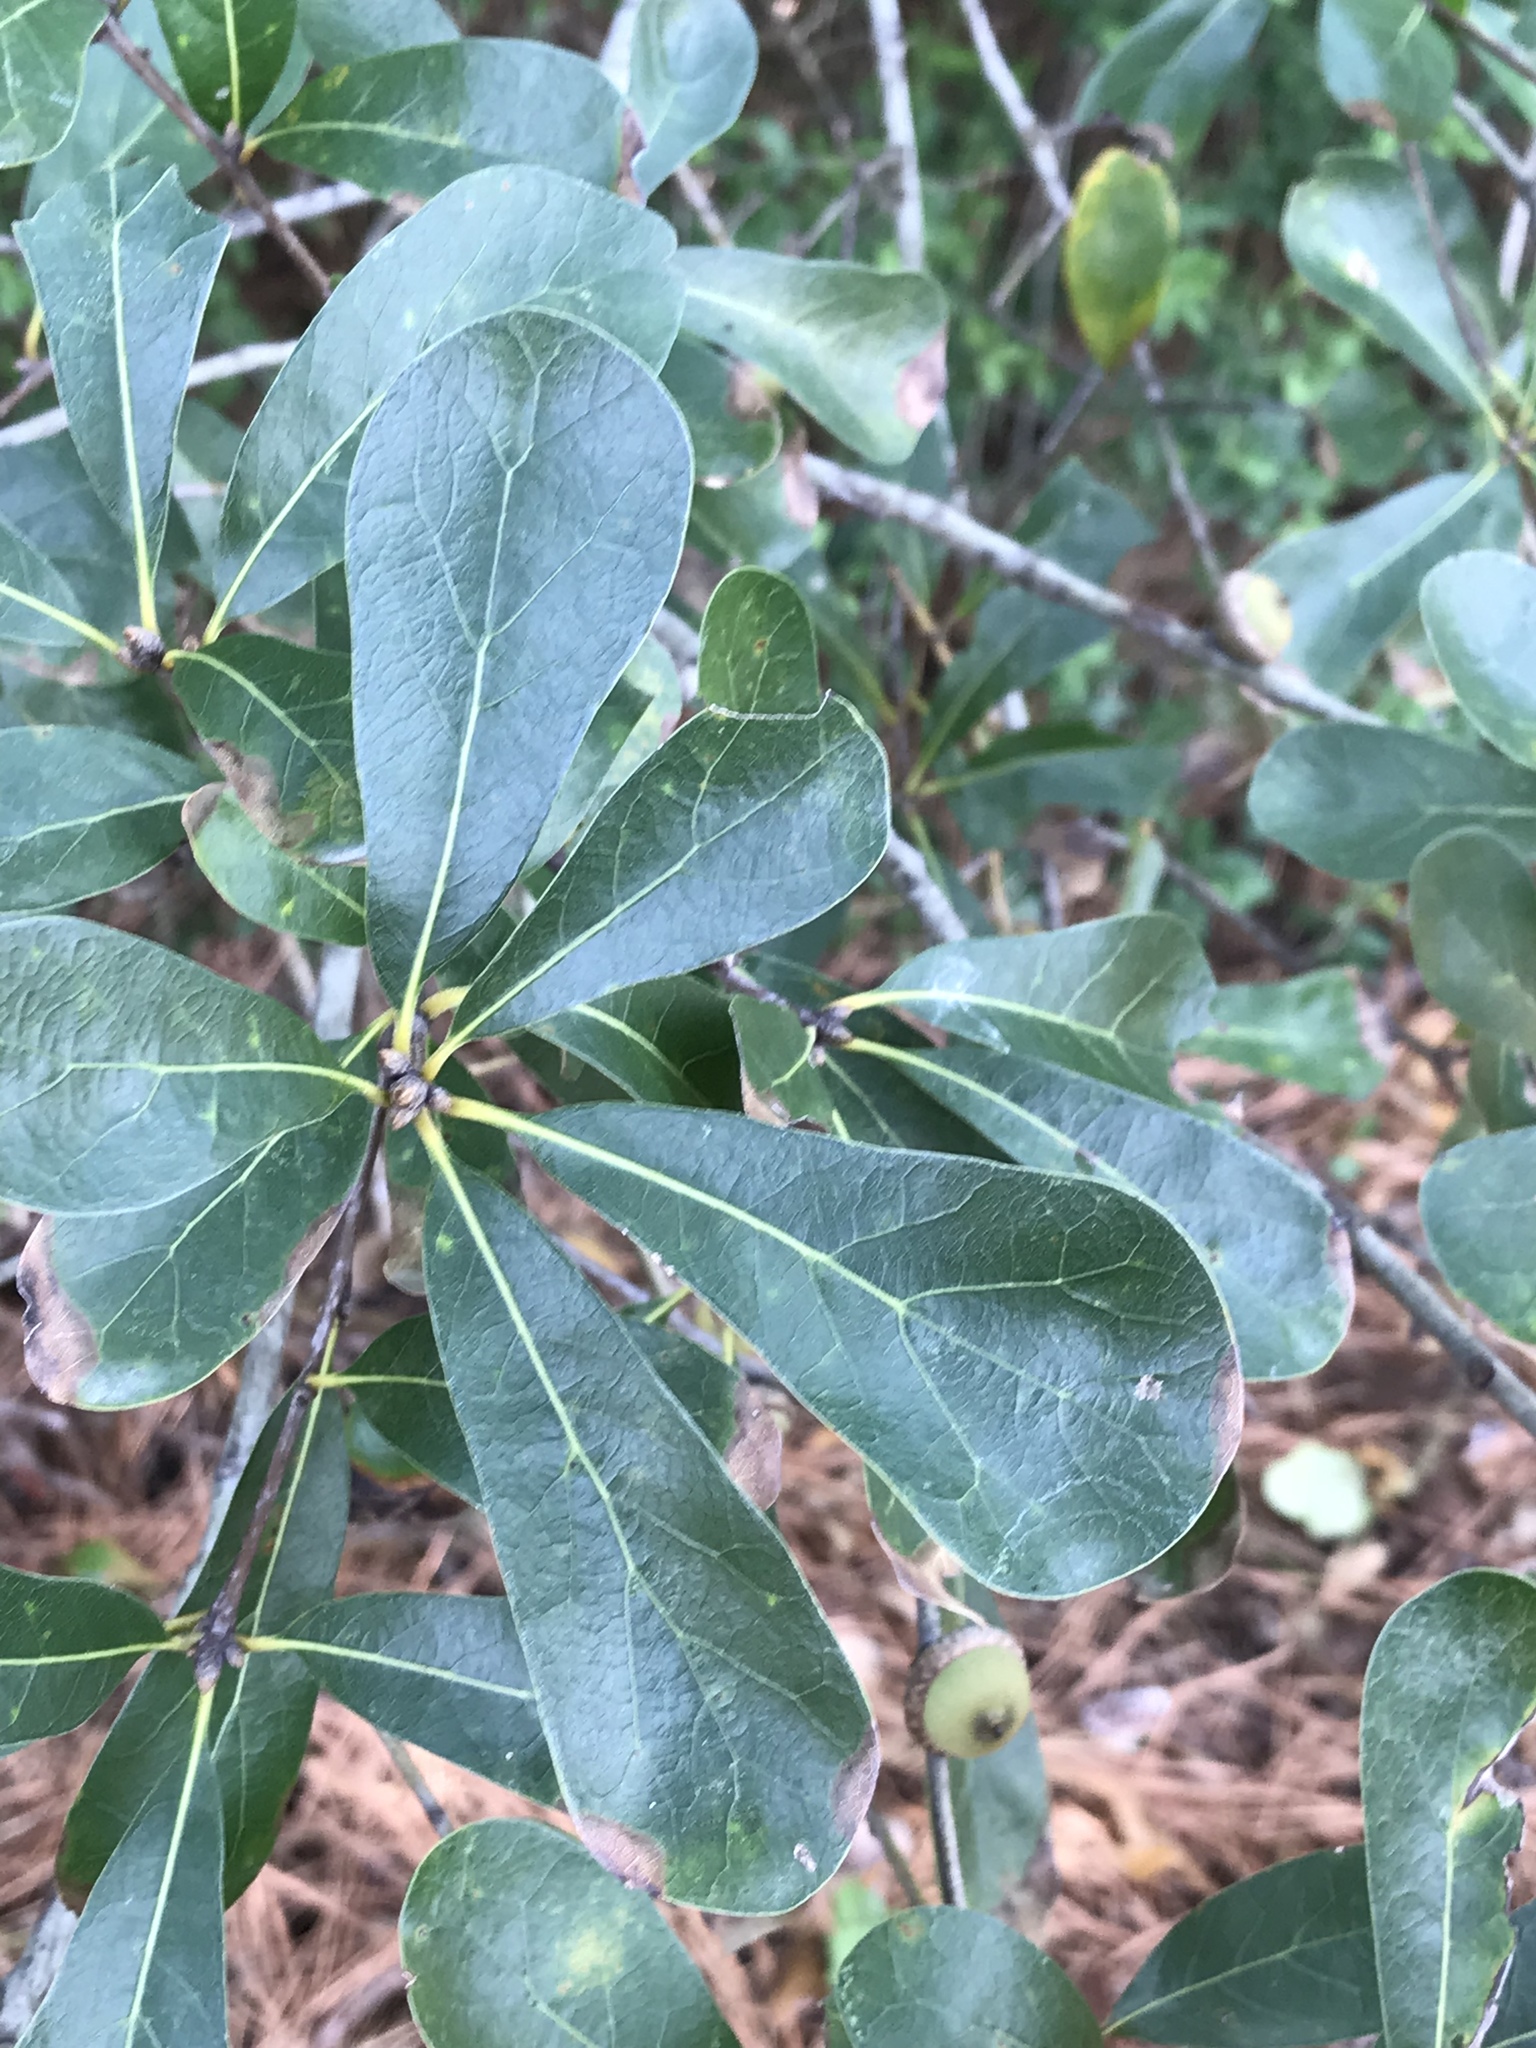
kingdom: Plantae
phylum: Tracheophyta
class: Magnoliopsida
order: Fagales
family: Fagaceae
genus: Quercus
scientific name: Quercus nigra
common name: Water oak
